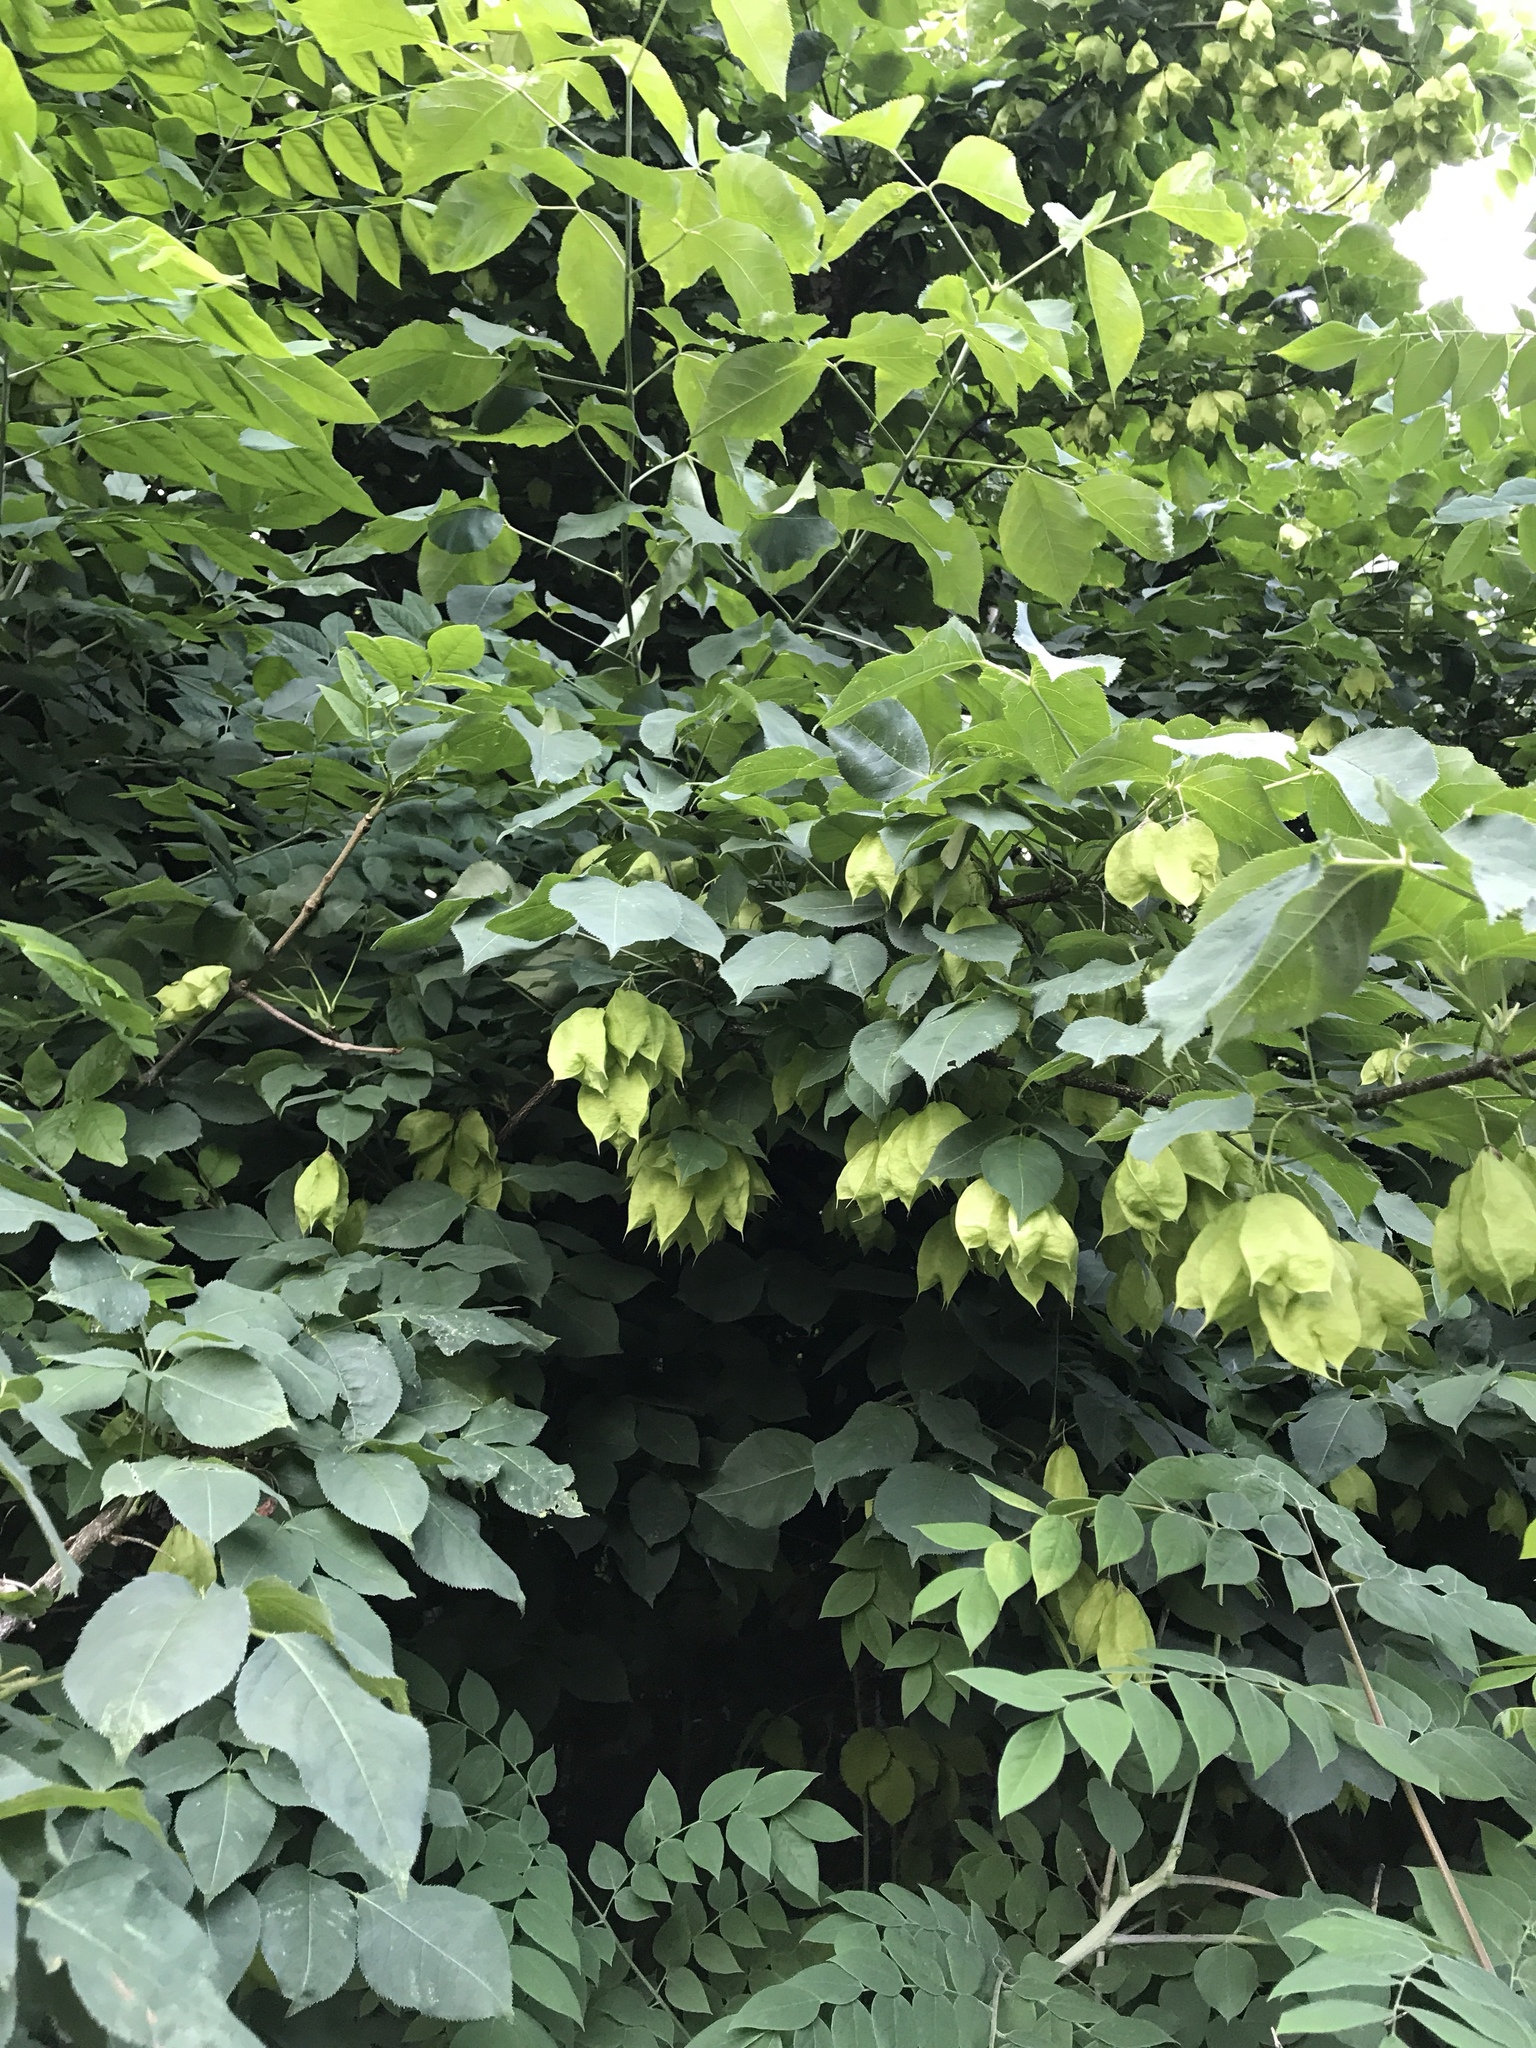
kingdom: Plantae
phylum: Tracheophyta
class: Magnoliopsida
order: Crossosomatales
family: Staphyleaceae
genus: Staphylea
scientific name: Staphylea trifolia
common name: American bladdernut
